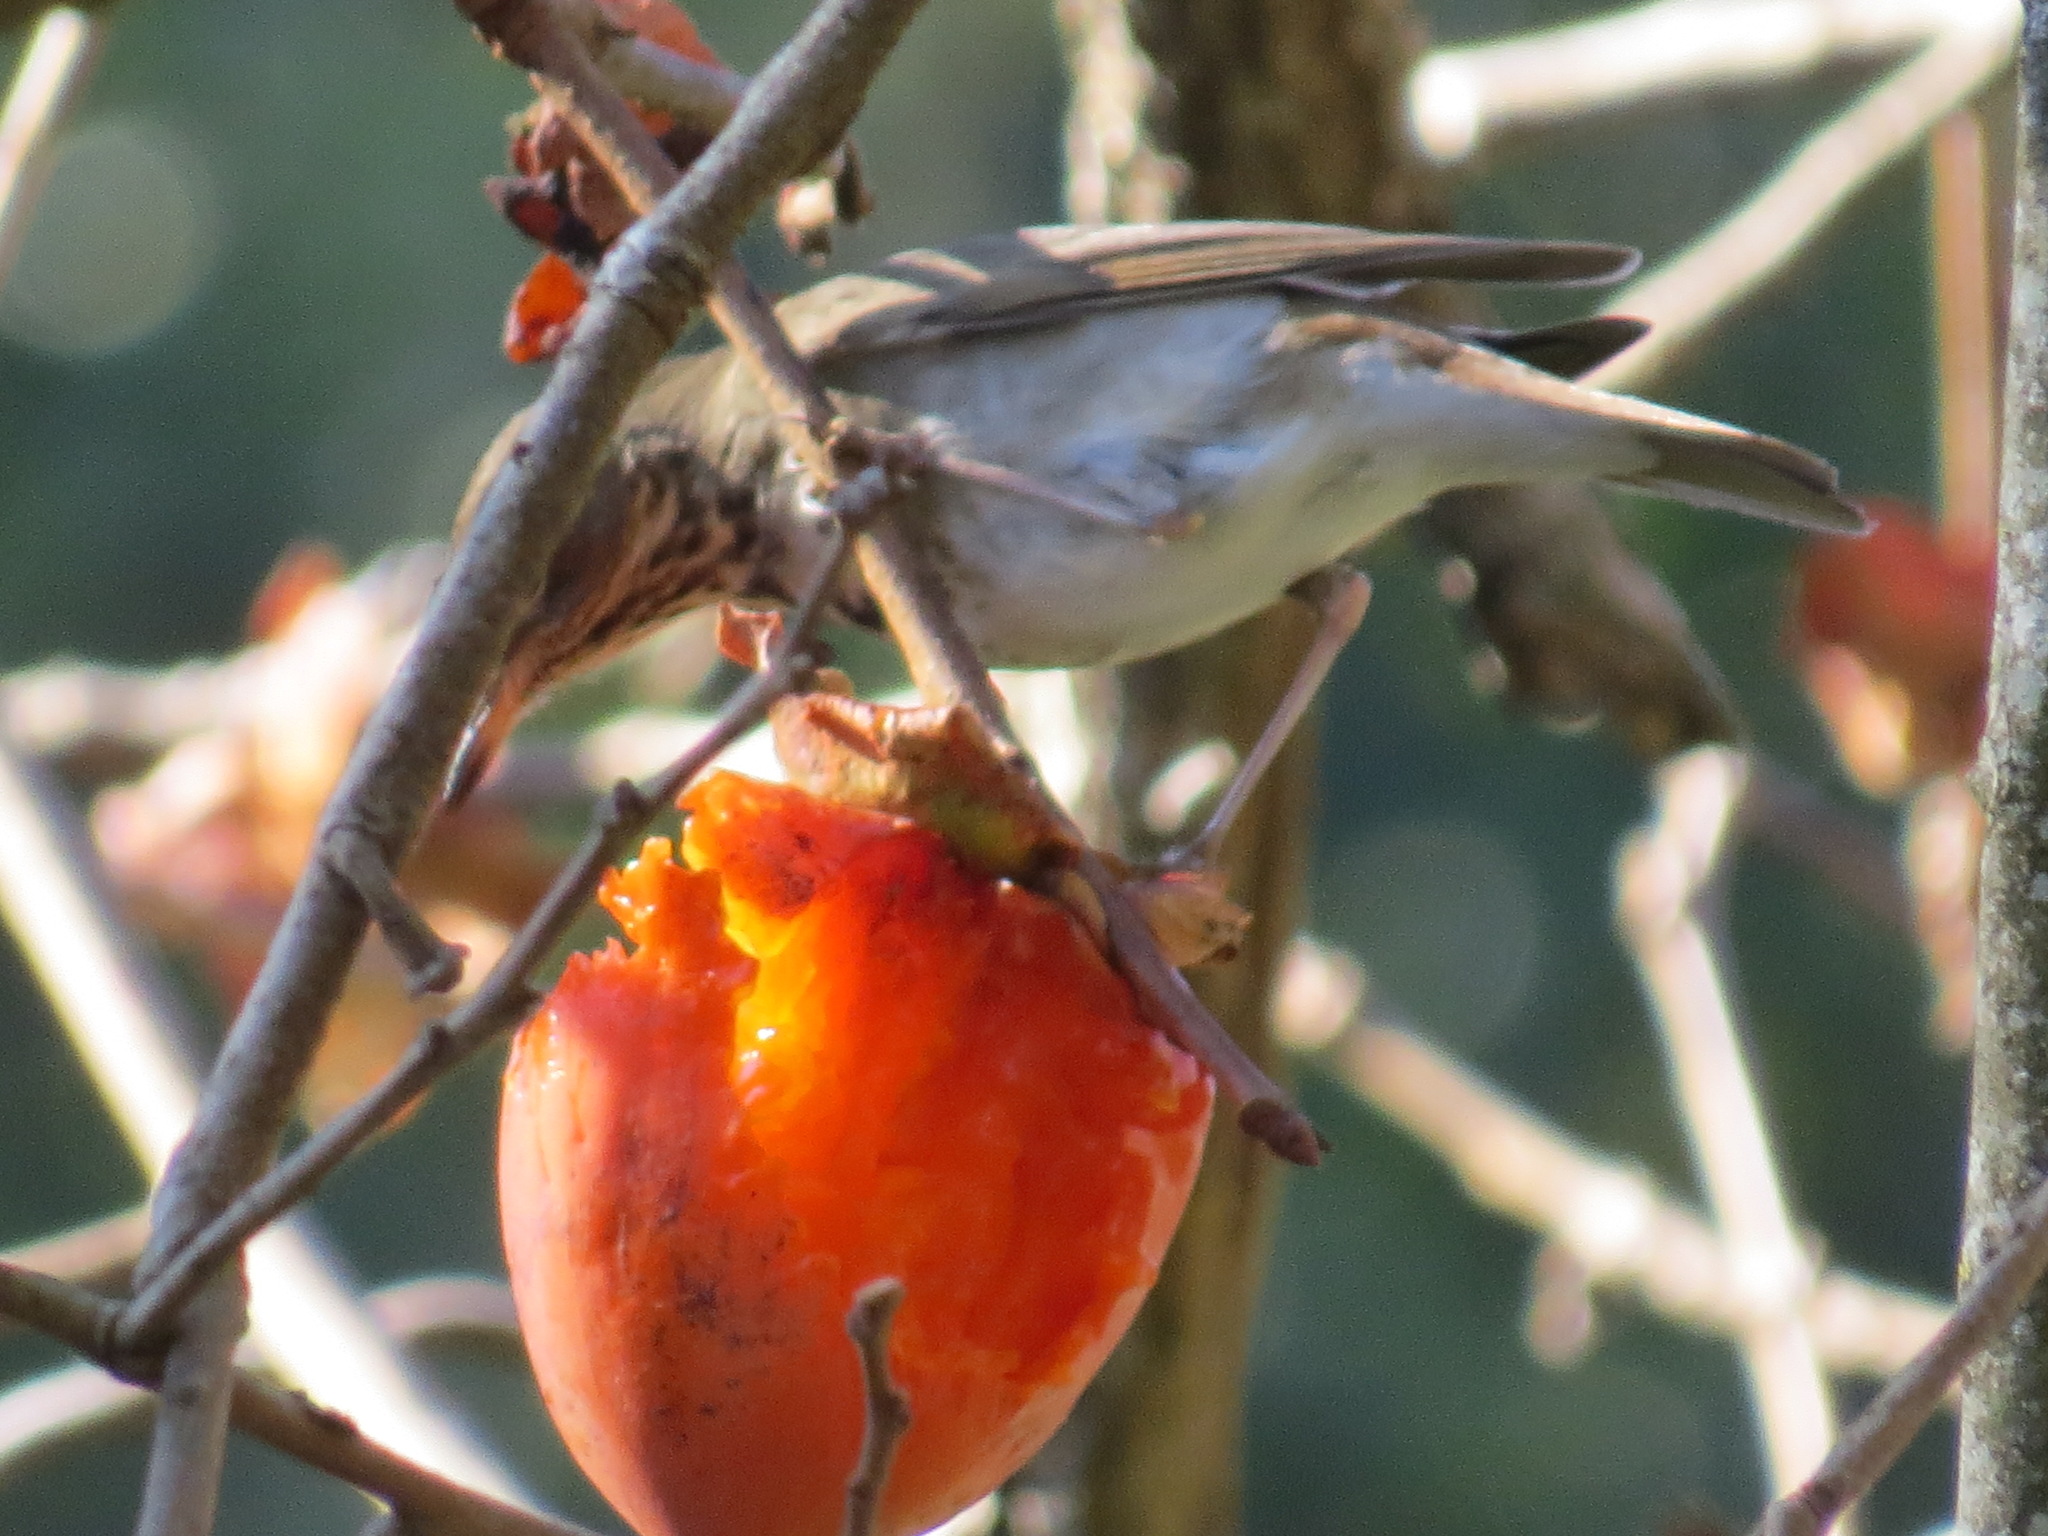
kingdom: Animalia
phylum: Chordata
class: Aves
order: Passeriformes
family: Turdidae
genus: Catharus
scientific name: Catharus guttatus
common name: Hermit thrush
